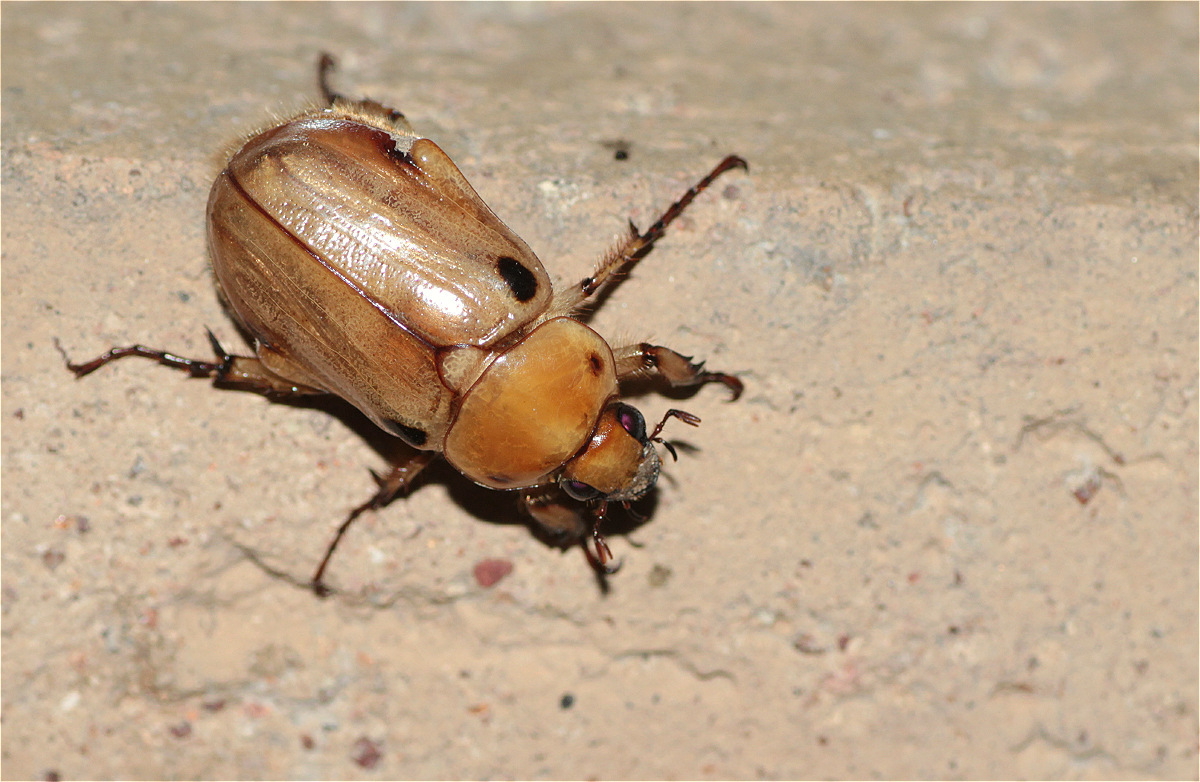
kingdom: Animalia
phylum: Arthropoda
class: Insecta
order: Coleoptera
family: Scarabaeidae
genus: Ancognatha
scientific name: Ancognatha vulgaris
